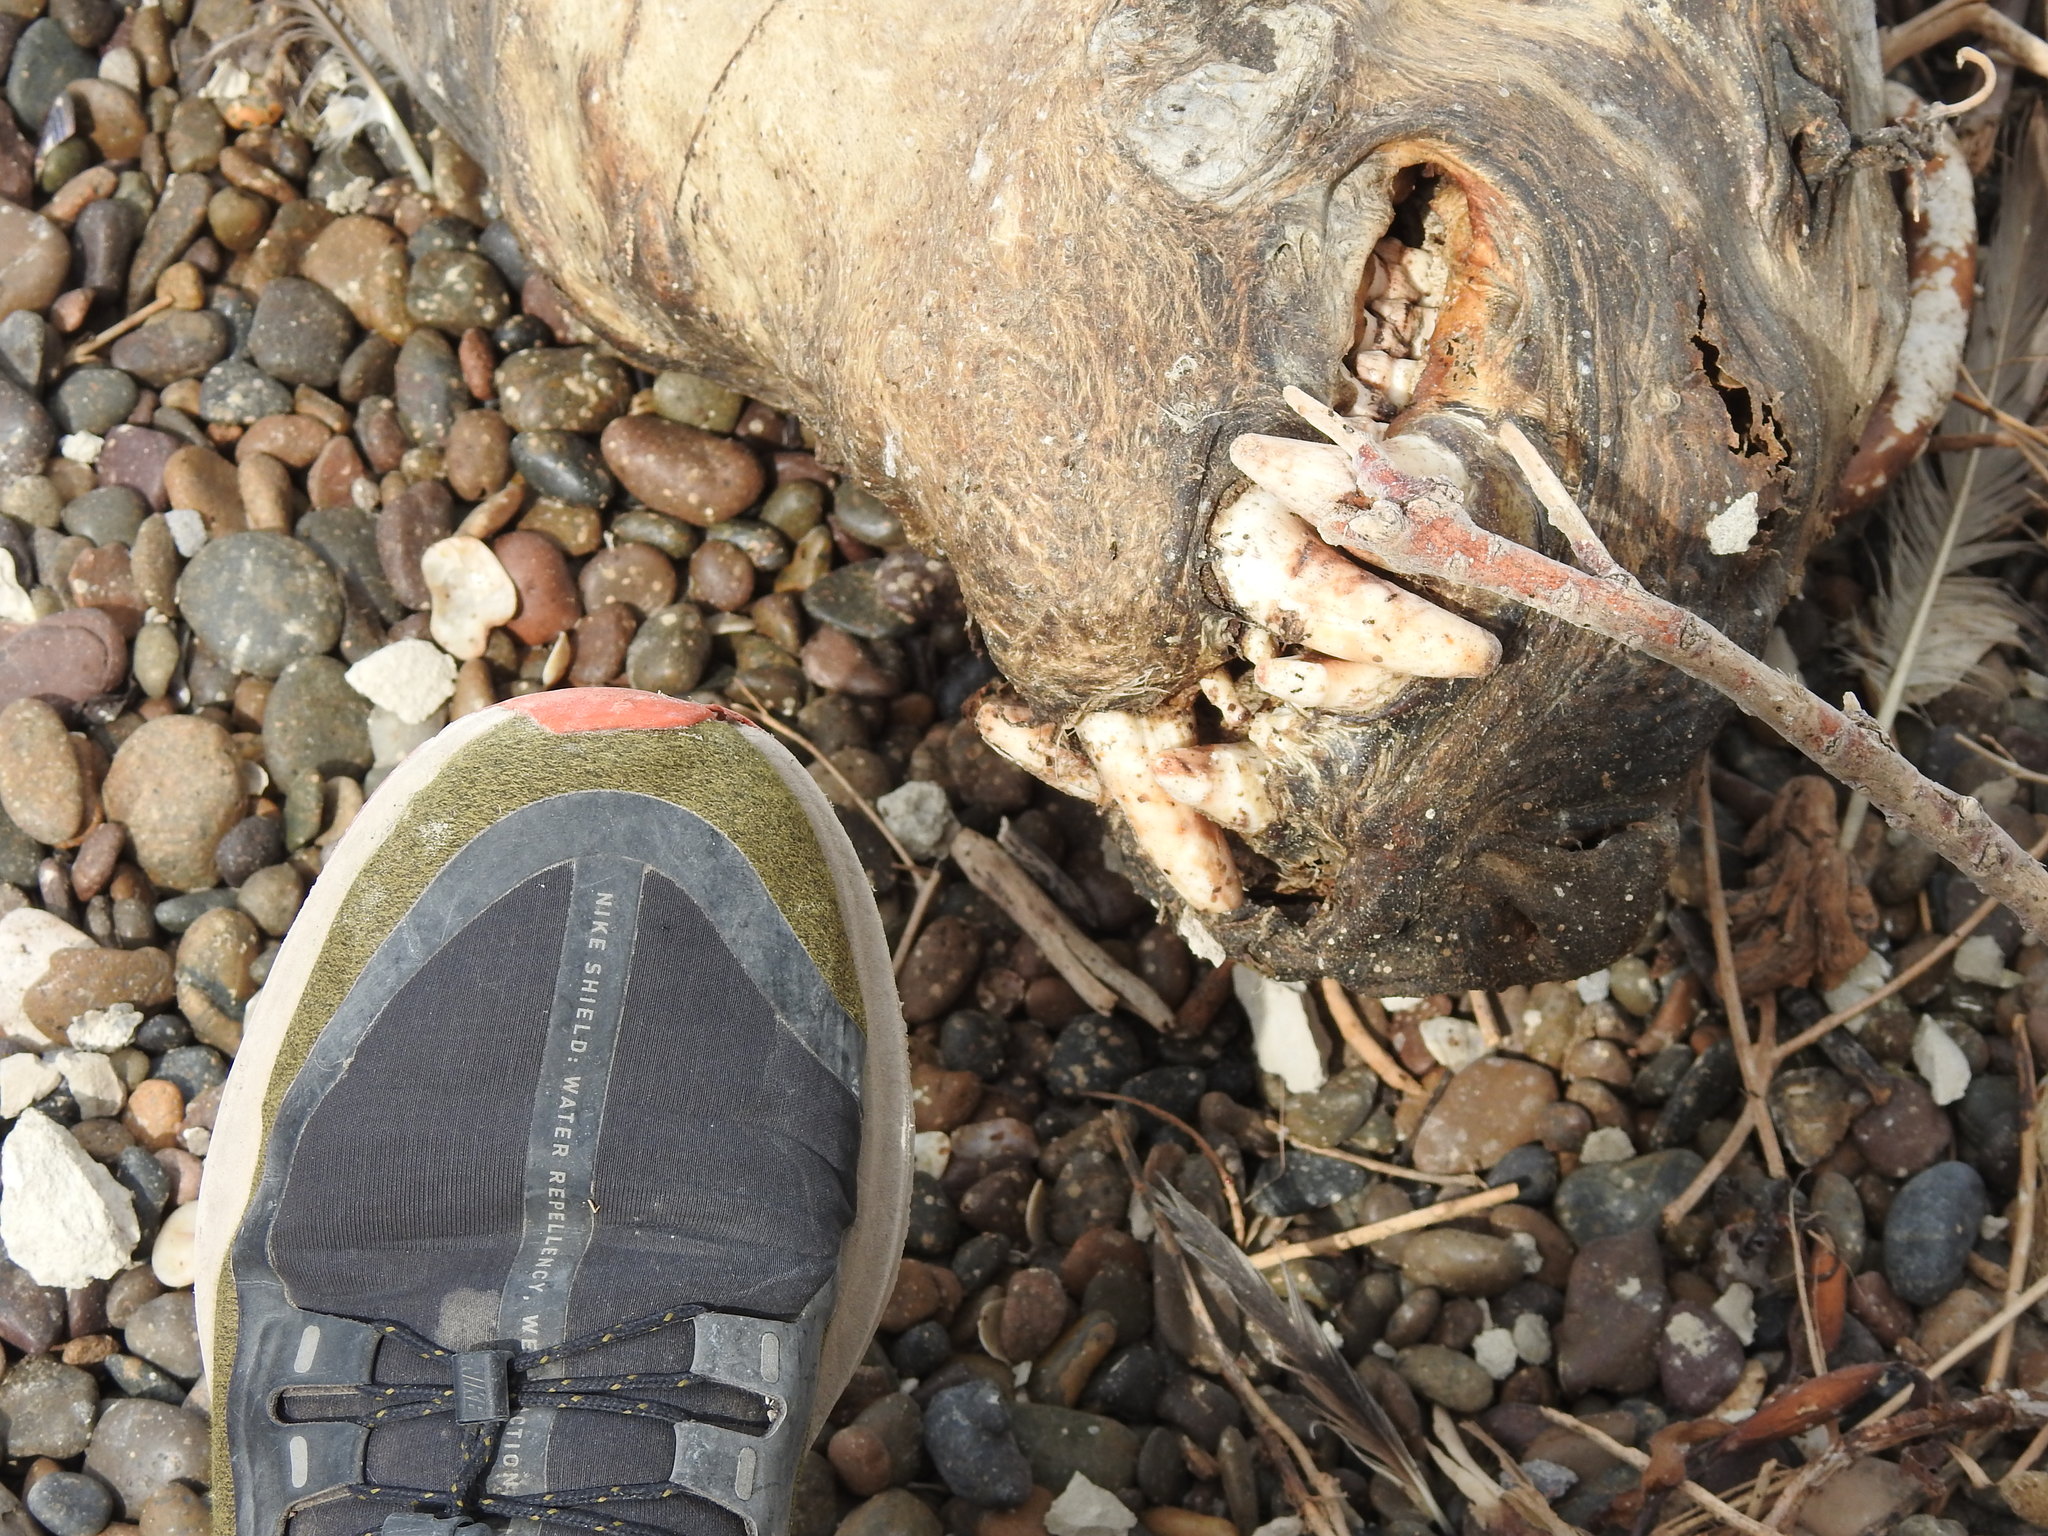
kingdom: Animalia
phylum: Chordata
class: Mammalia
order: Carnivora
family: Otariidae
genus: Otaria
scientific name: Otaria byronia
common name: South american sea lion
